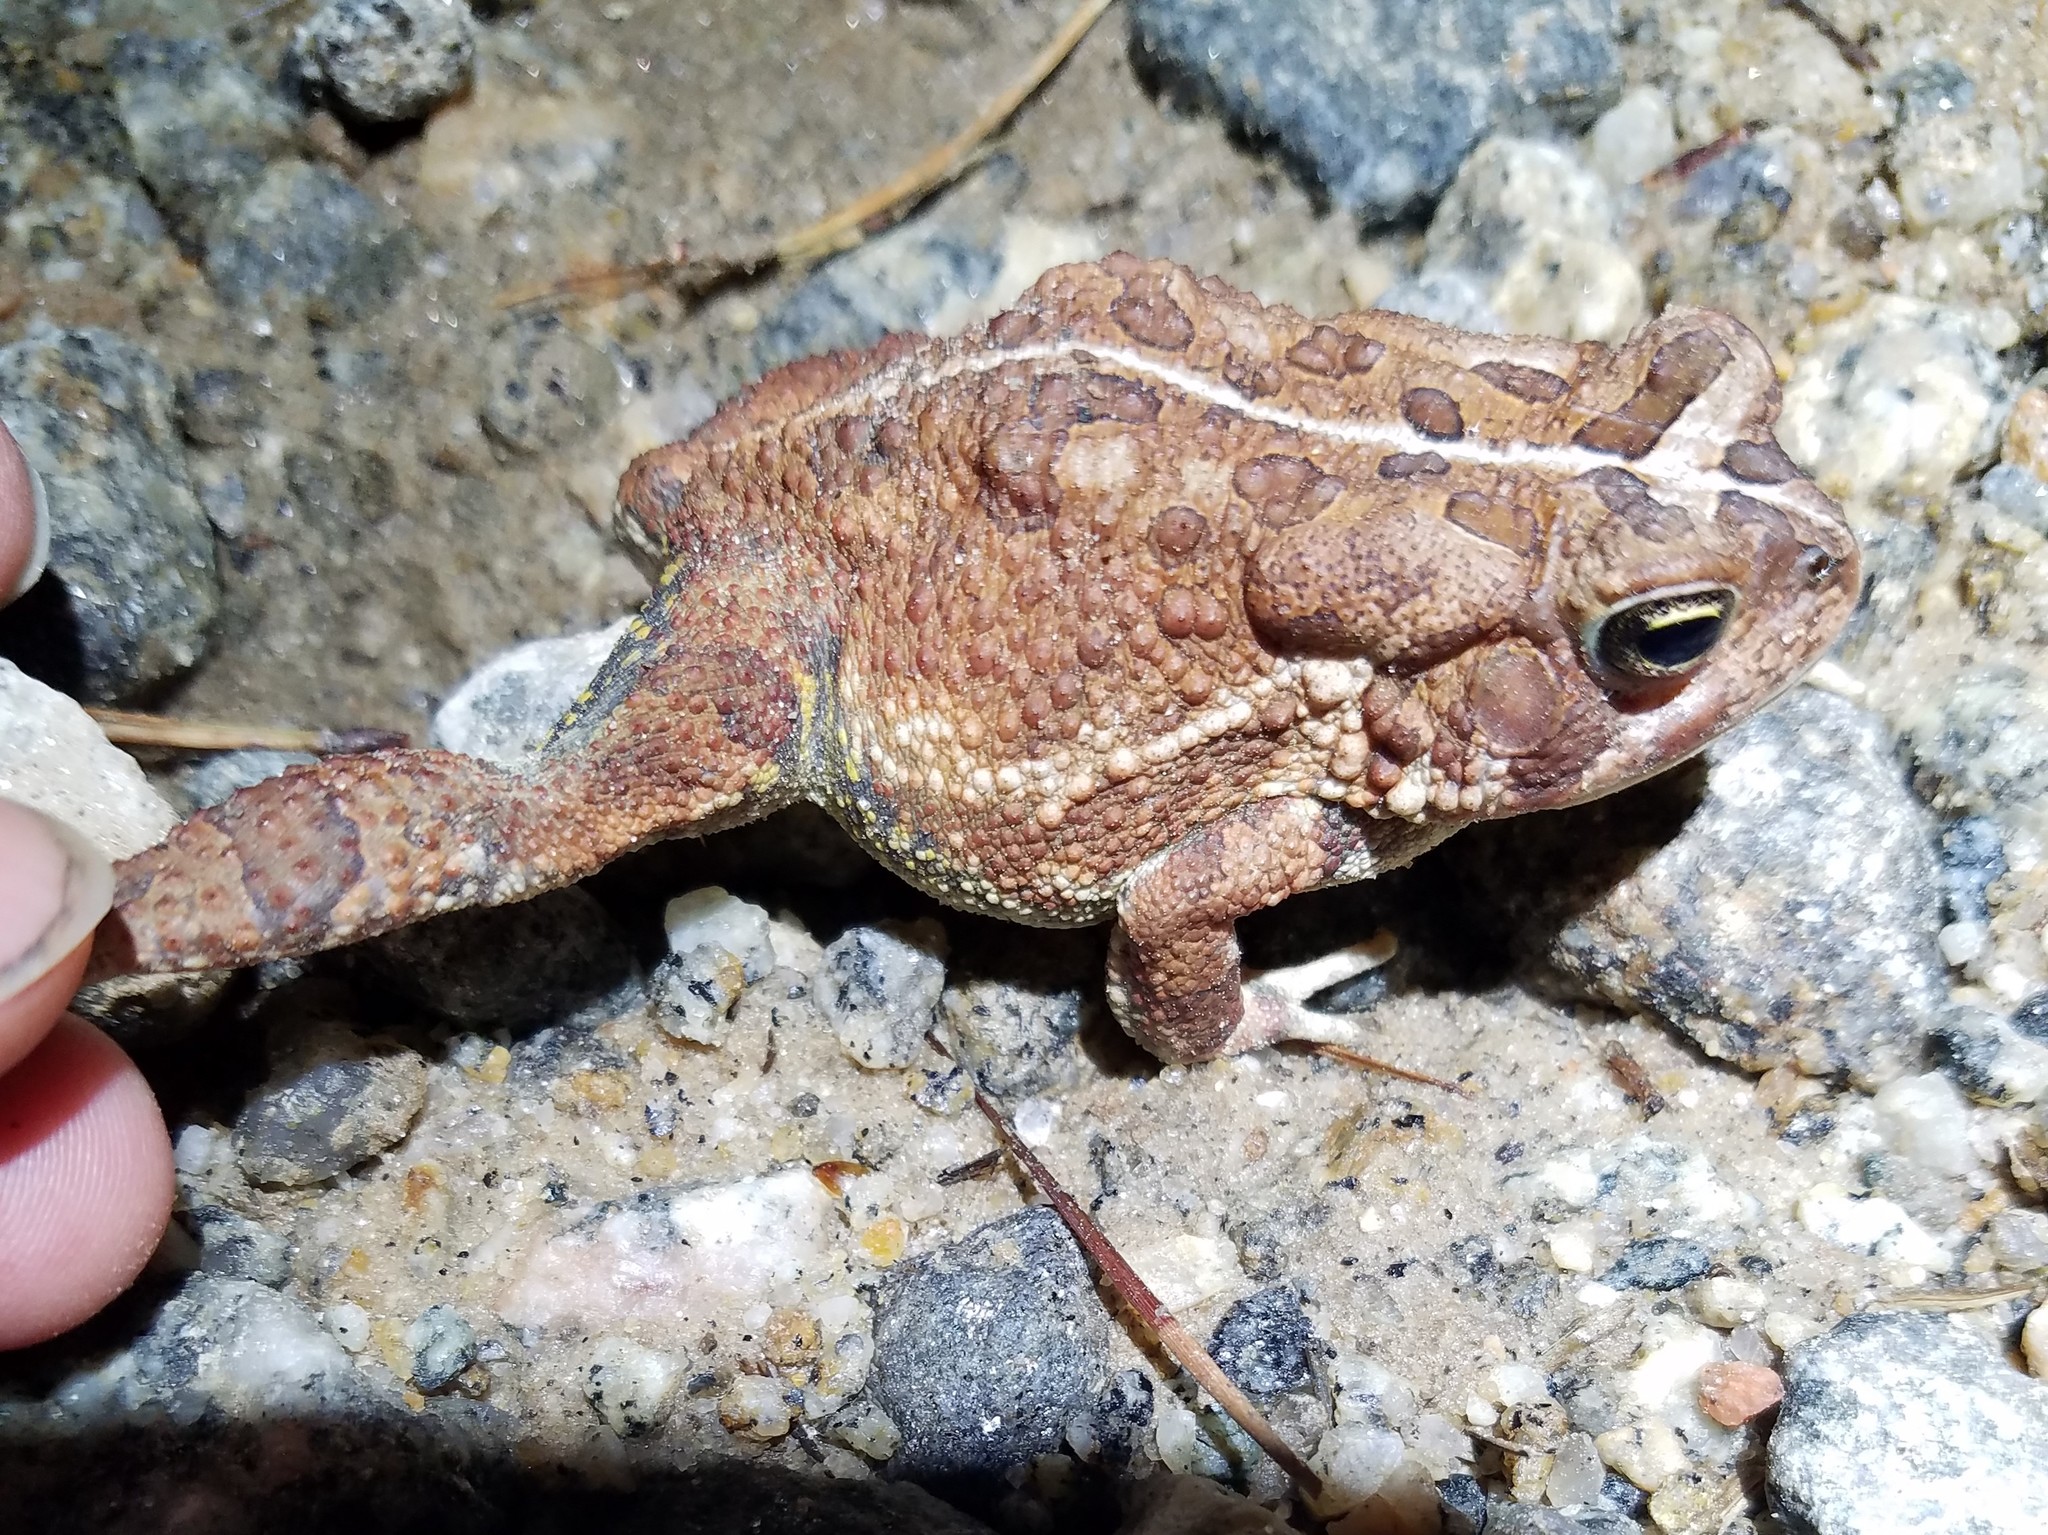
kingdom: Animalia
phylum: Chordata
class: Amphibia
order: Anura
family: Bufonidae
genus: Anaxyrus
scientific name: Anaxyrus fowleri
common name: Fowler's toad
